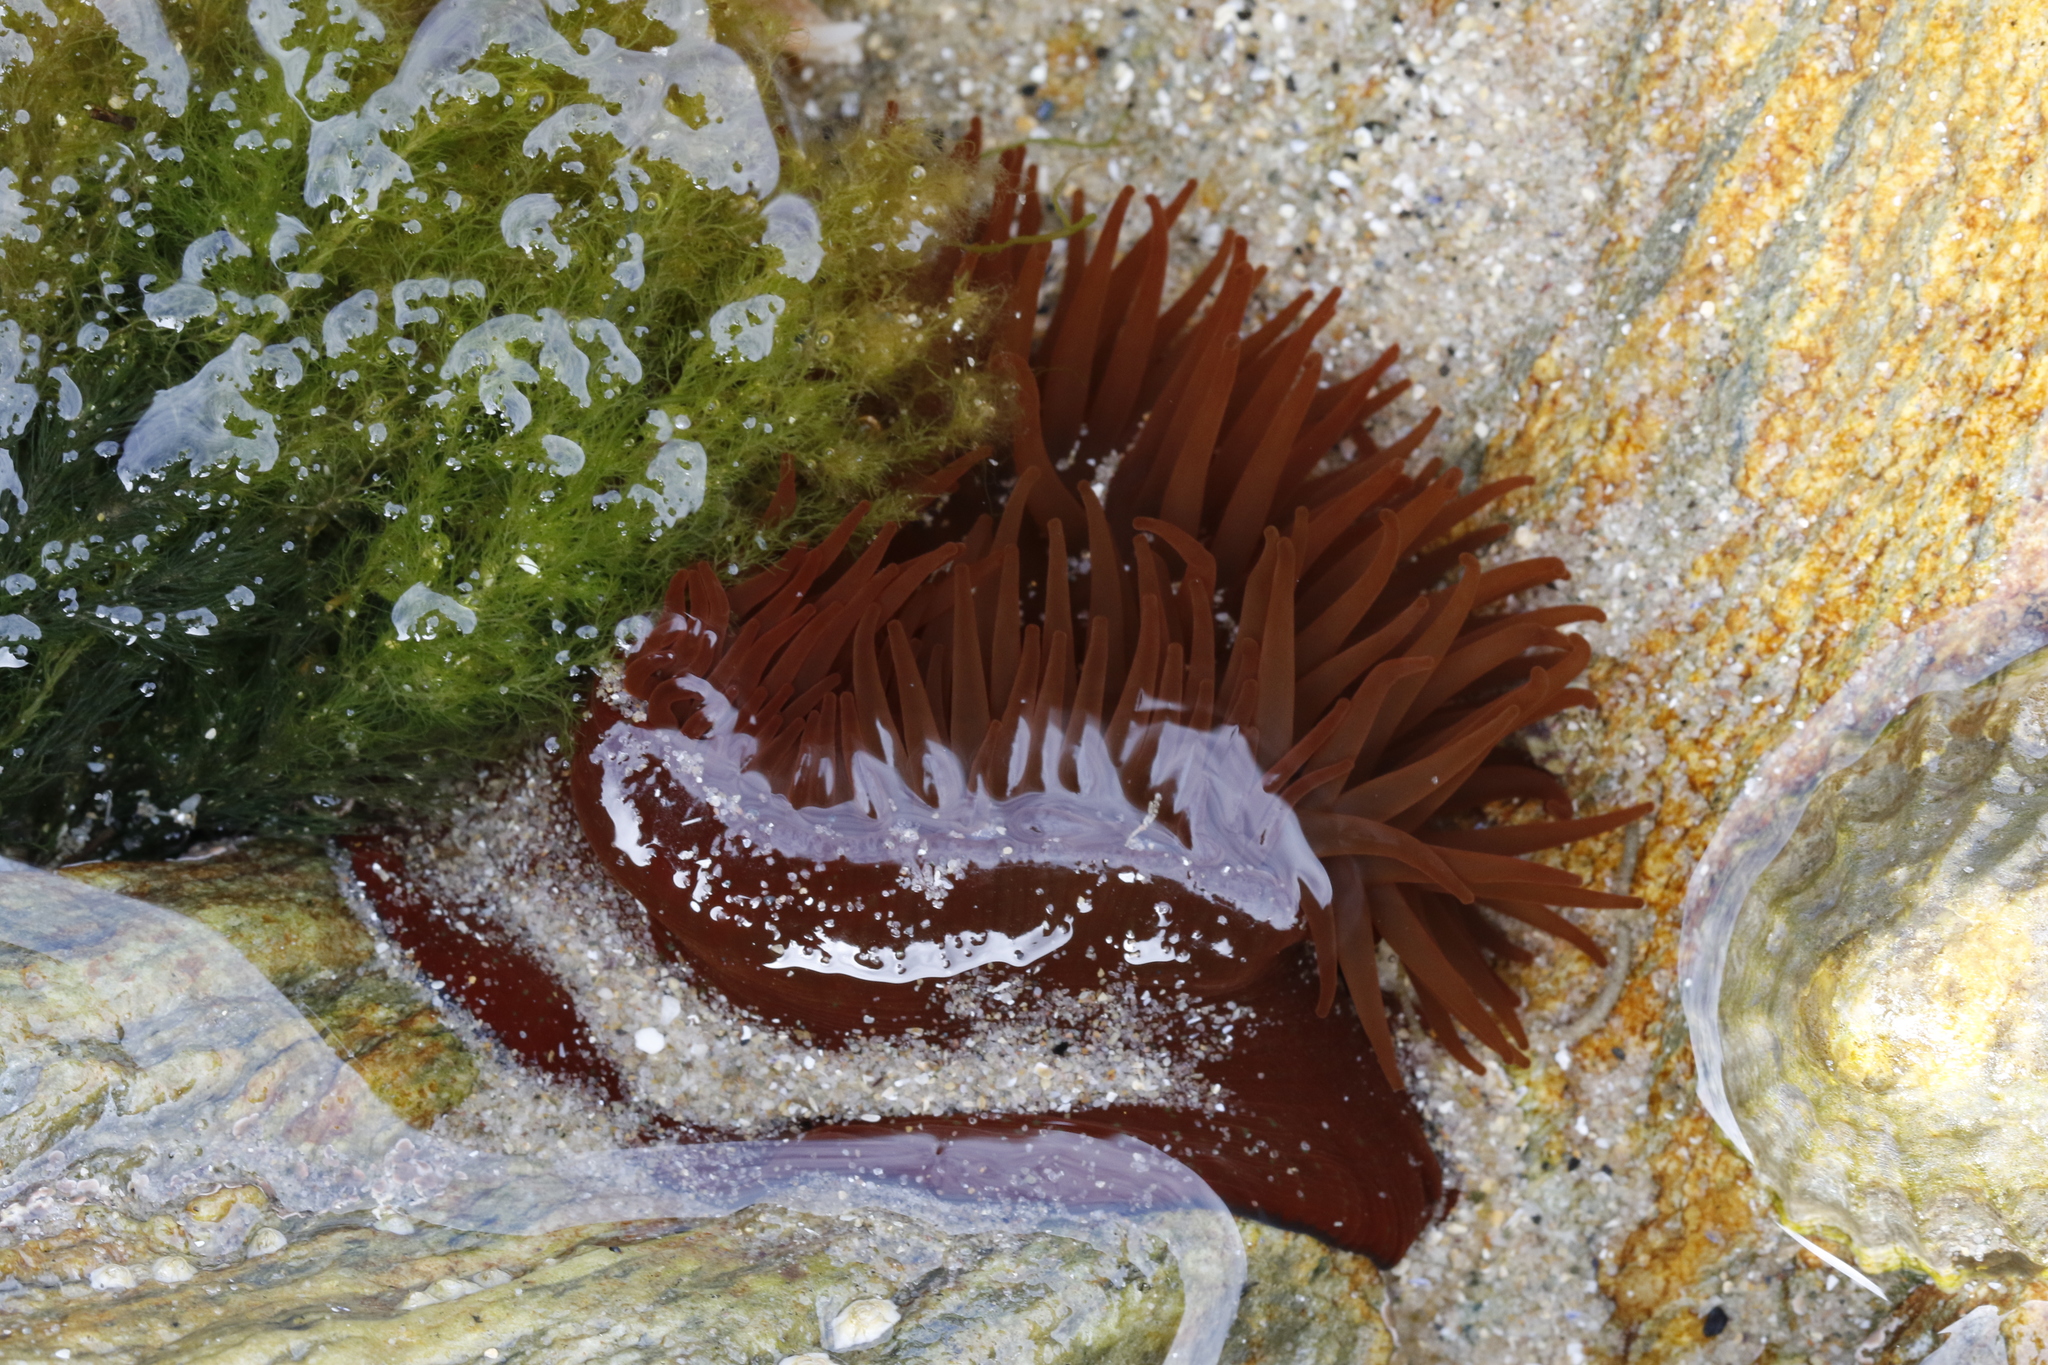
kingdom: Animalia
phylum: Cnidaria
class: Anthozoa
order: Actiniaria
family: Actiniidae
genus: Actinia
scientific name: Actinia equina
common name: Beadlet anemone
